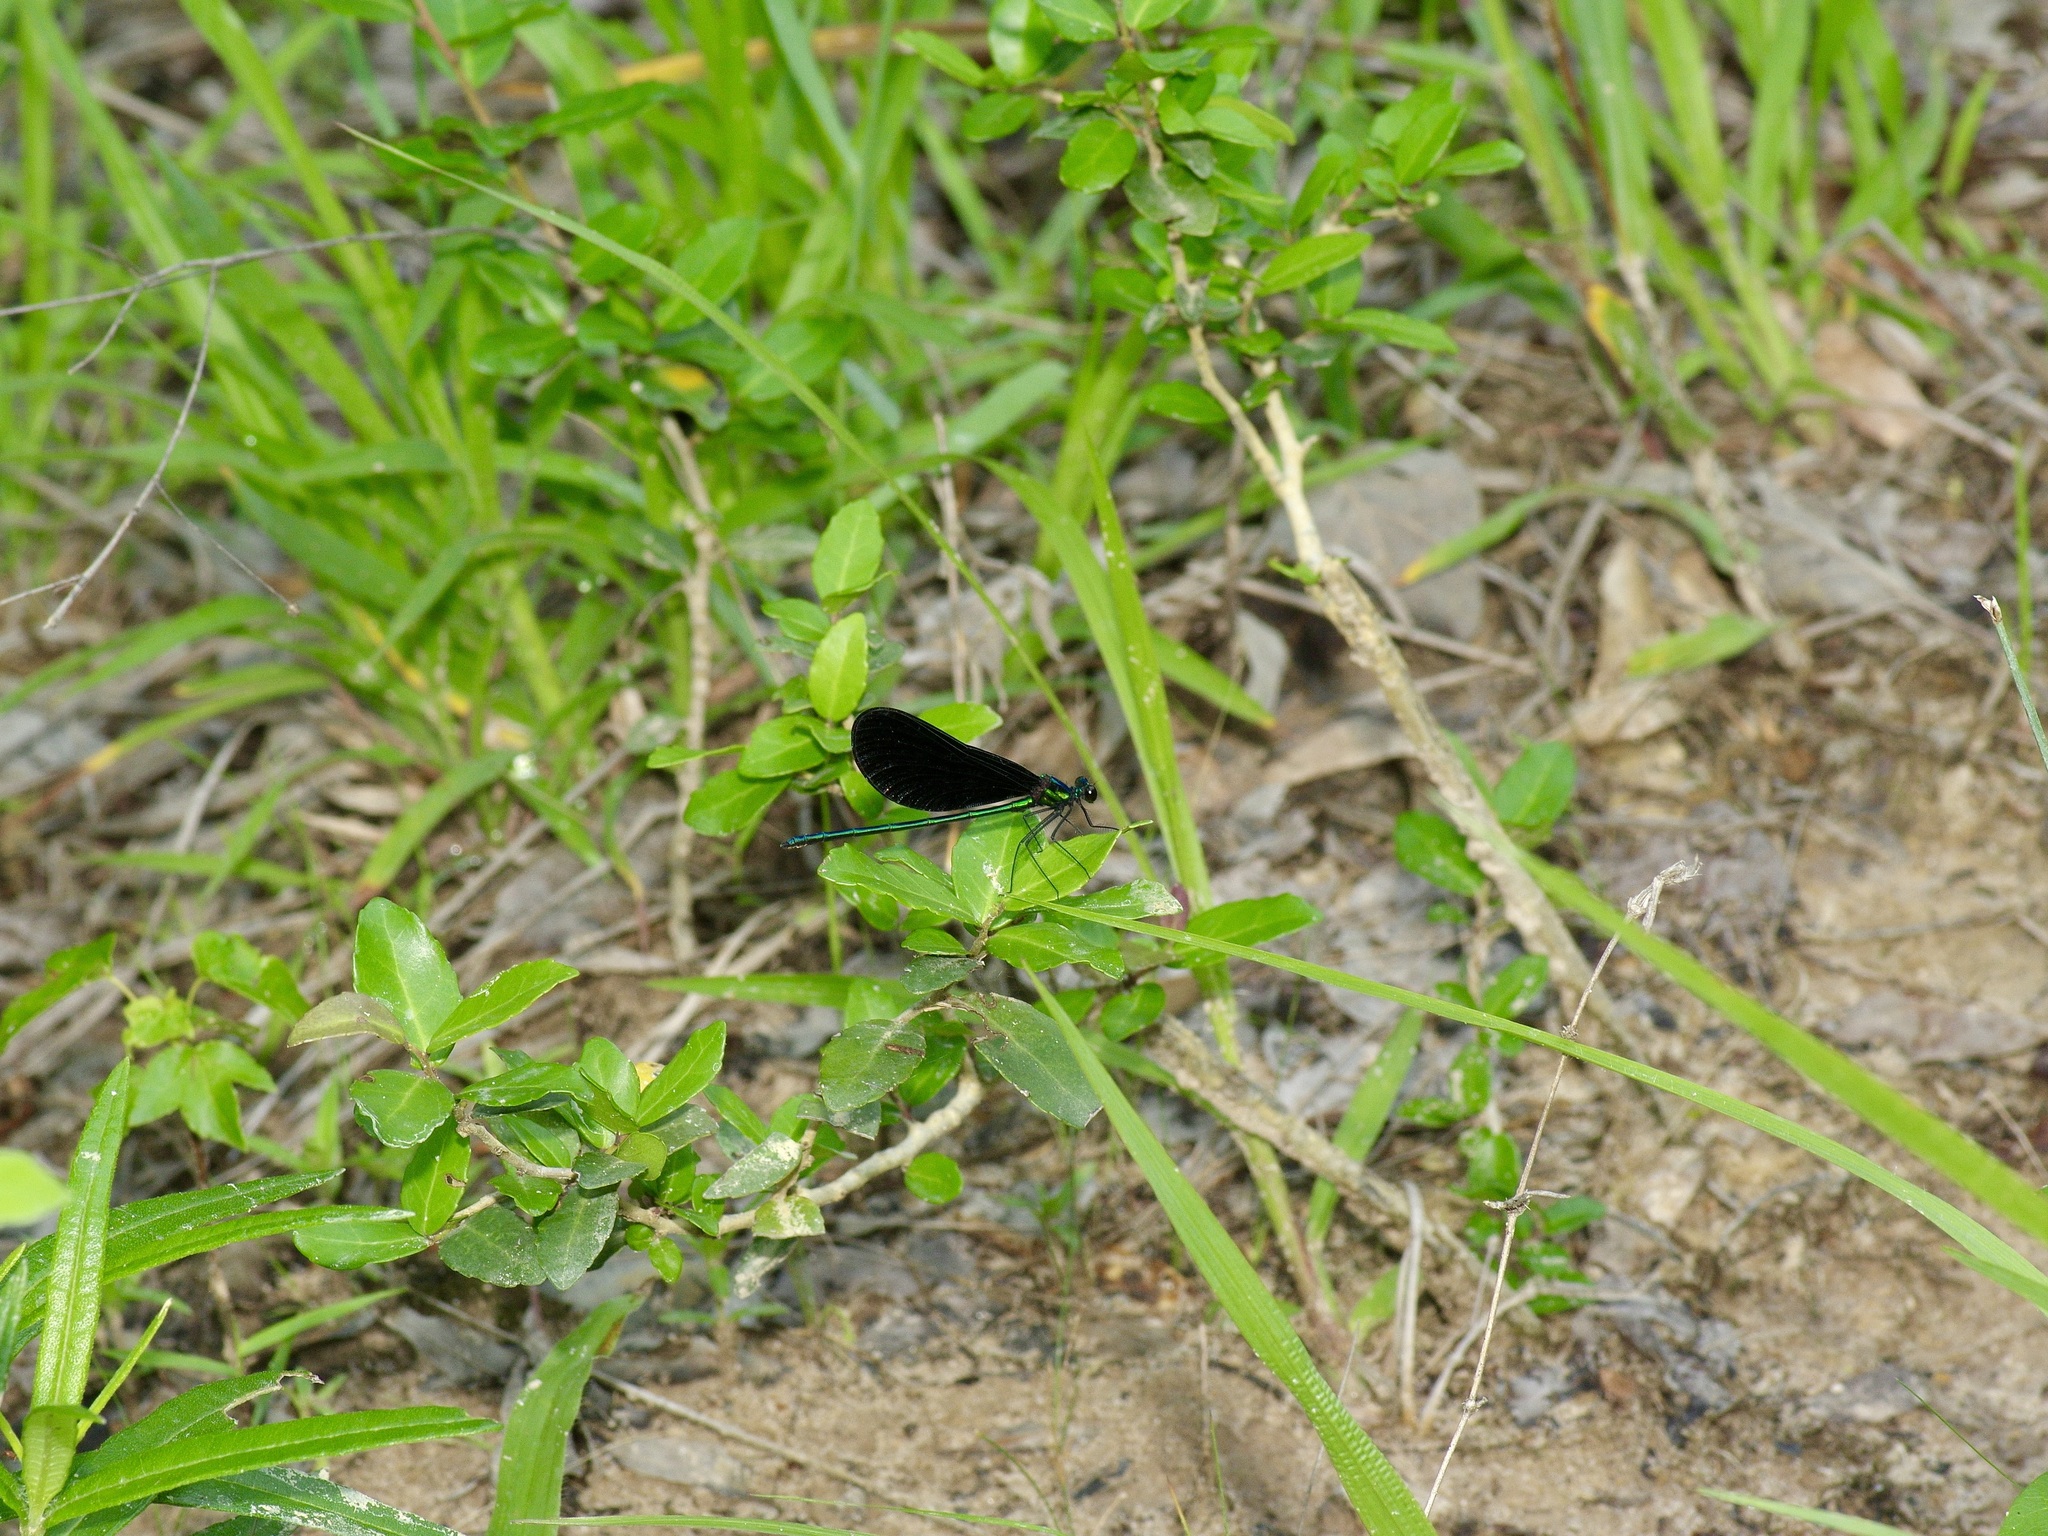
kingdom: Animalia
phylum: Arthropoda
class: Insecta
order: Odonata
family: Calopterygidae
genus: Calopteryx
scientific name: Calopteryx maculata
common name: Ebony jewelwing
